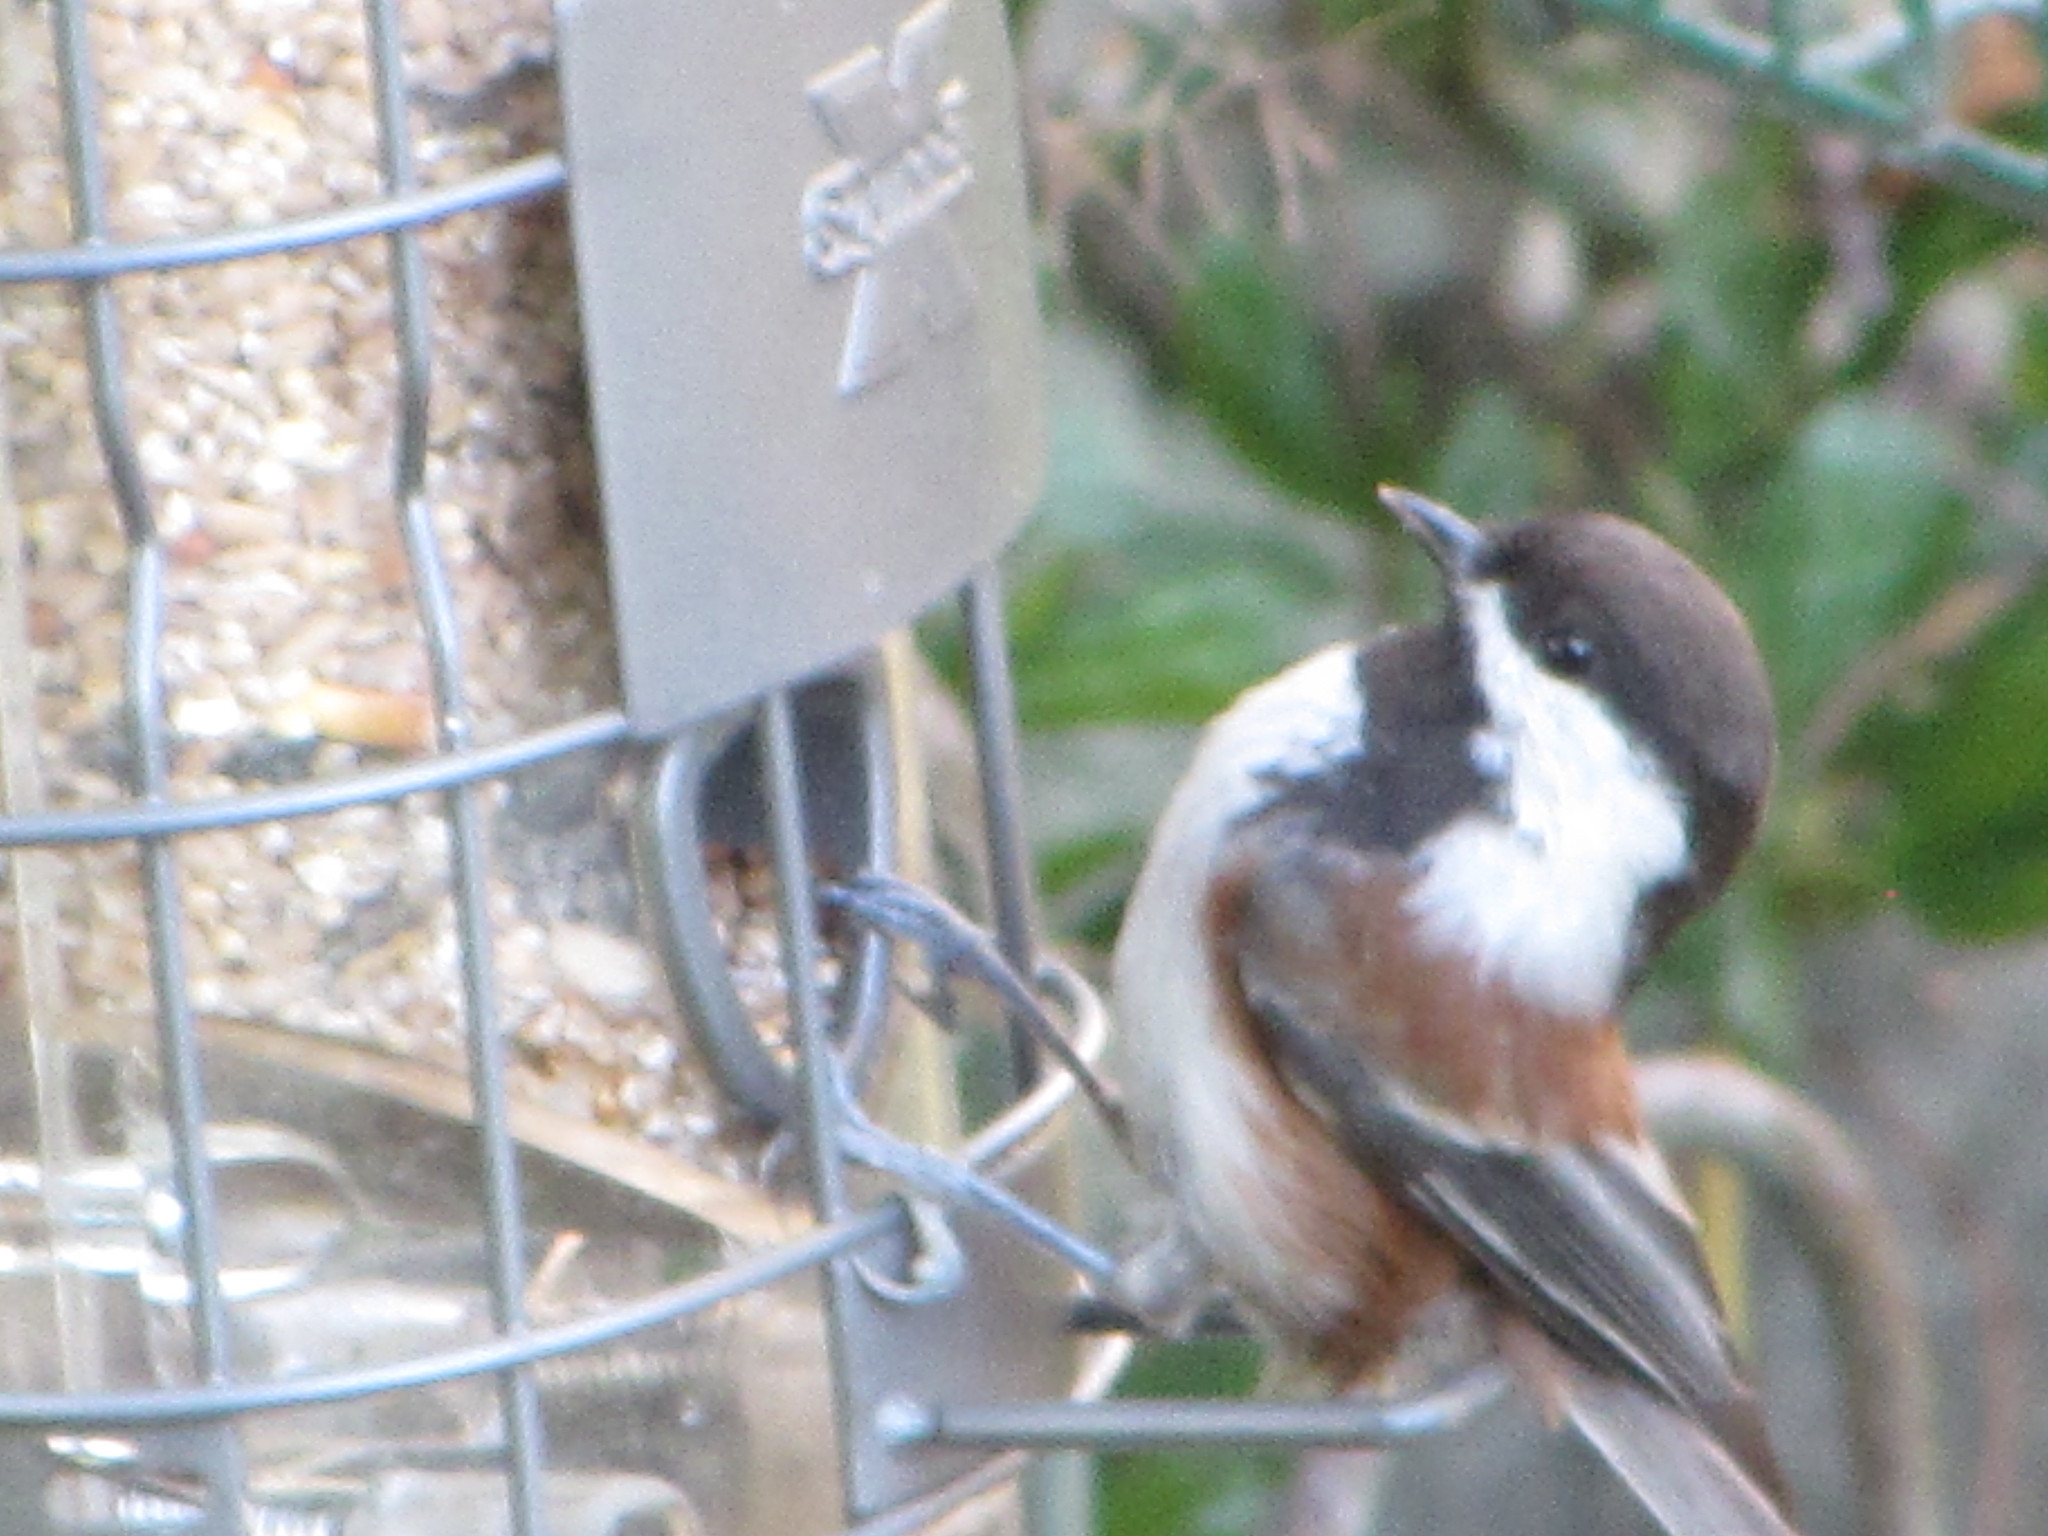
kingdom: Animalia
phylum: Chordata
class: Aves
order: Passeriformes
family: Paridae
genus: Poecile
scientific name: Poecile rufescens
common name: Chestnut-backed chickadee
